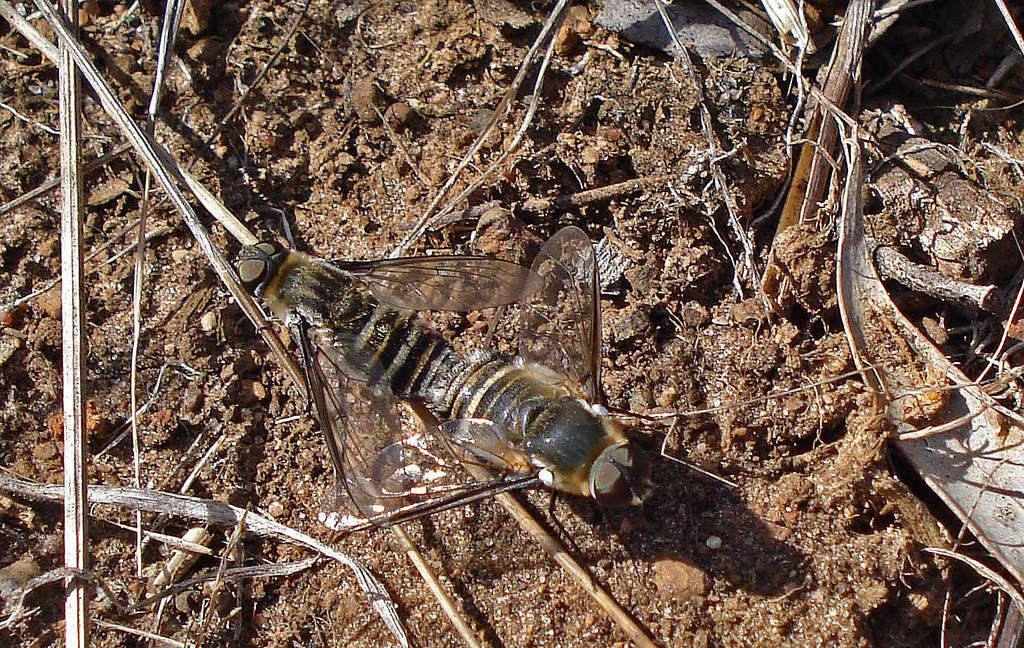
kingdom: Animalia
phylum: Arthropoda
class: Insecta
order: Diptera
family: Bombyliidae
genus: Villa
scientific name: Villa
